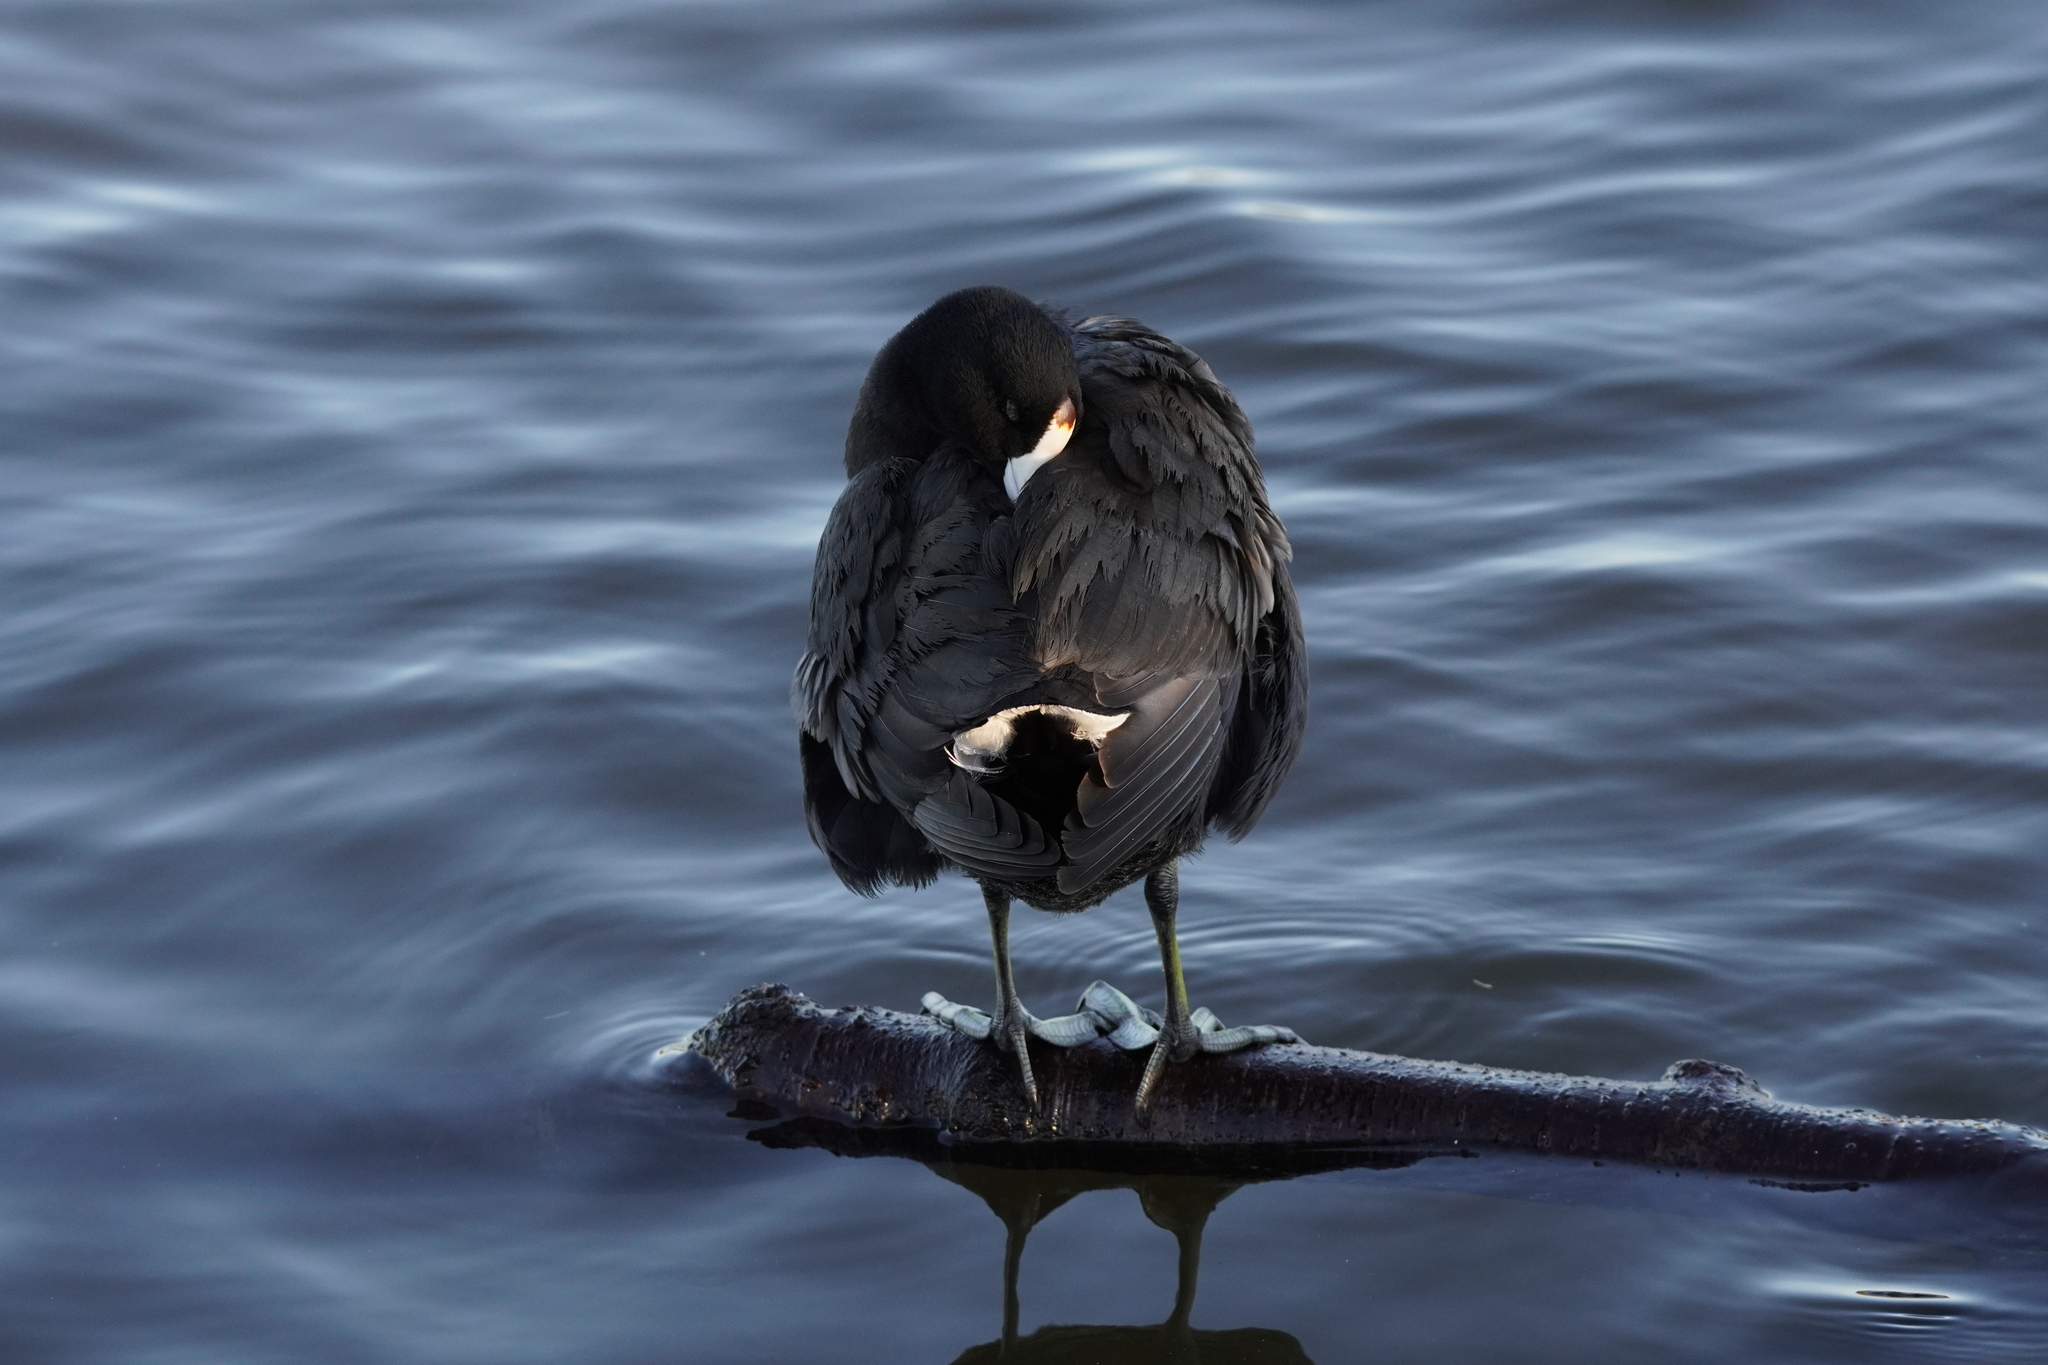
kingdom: Animalia
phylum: Chordata
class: Aves
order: Gruiformes
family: Rallidae
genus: Fulica
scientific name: Fulica americana
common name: American coot
